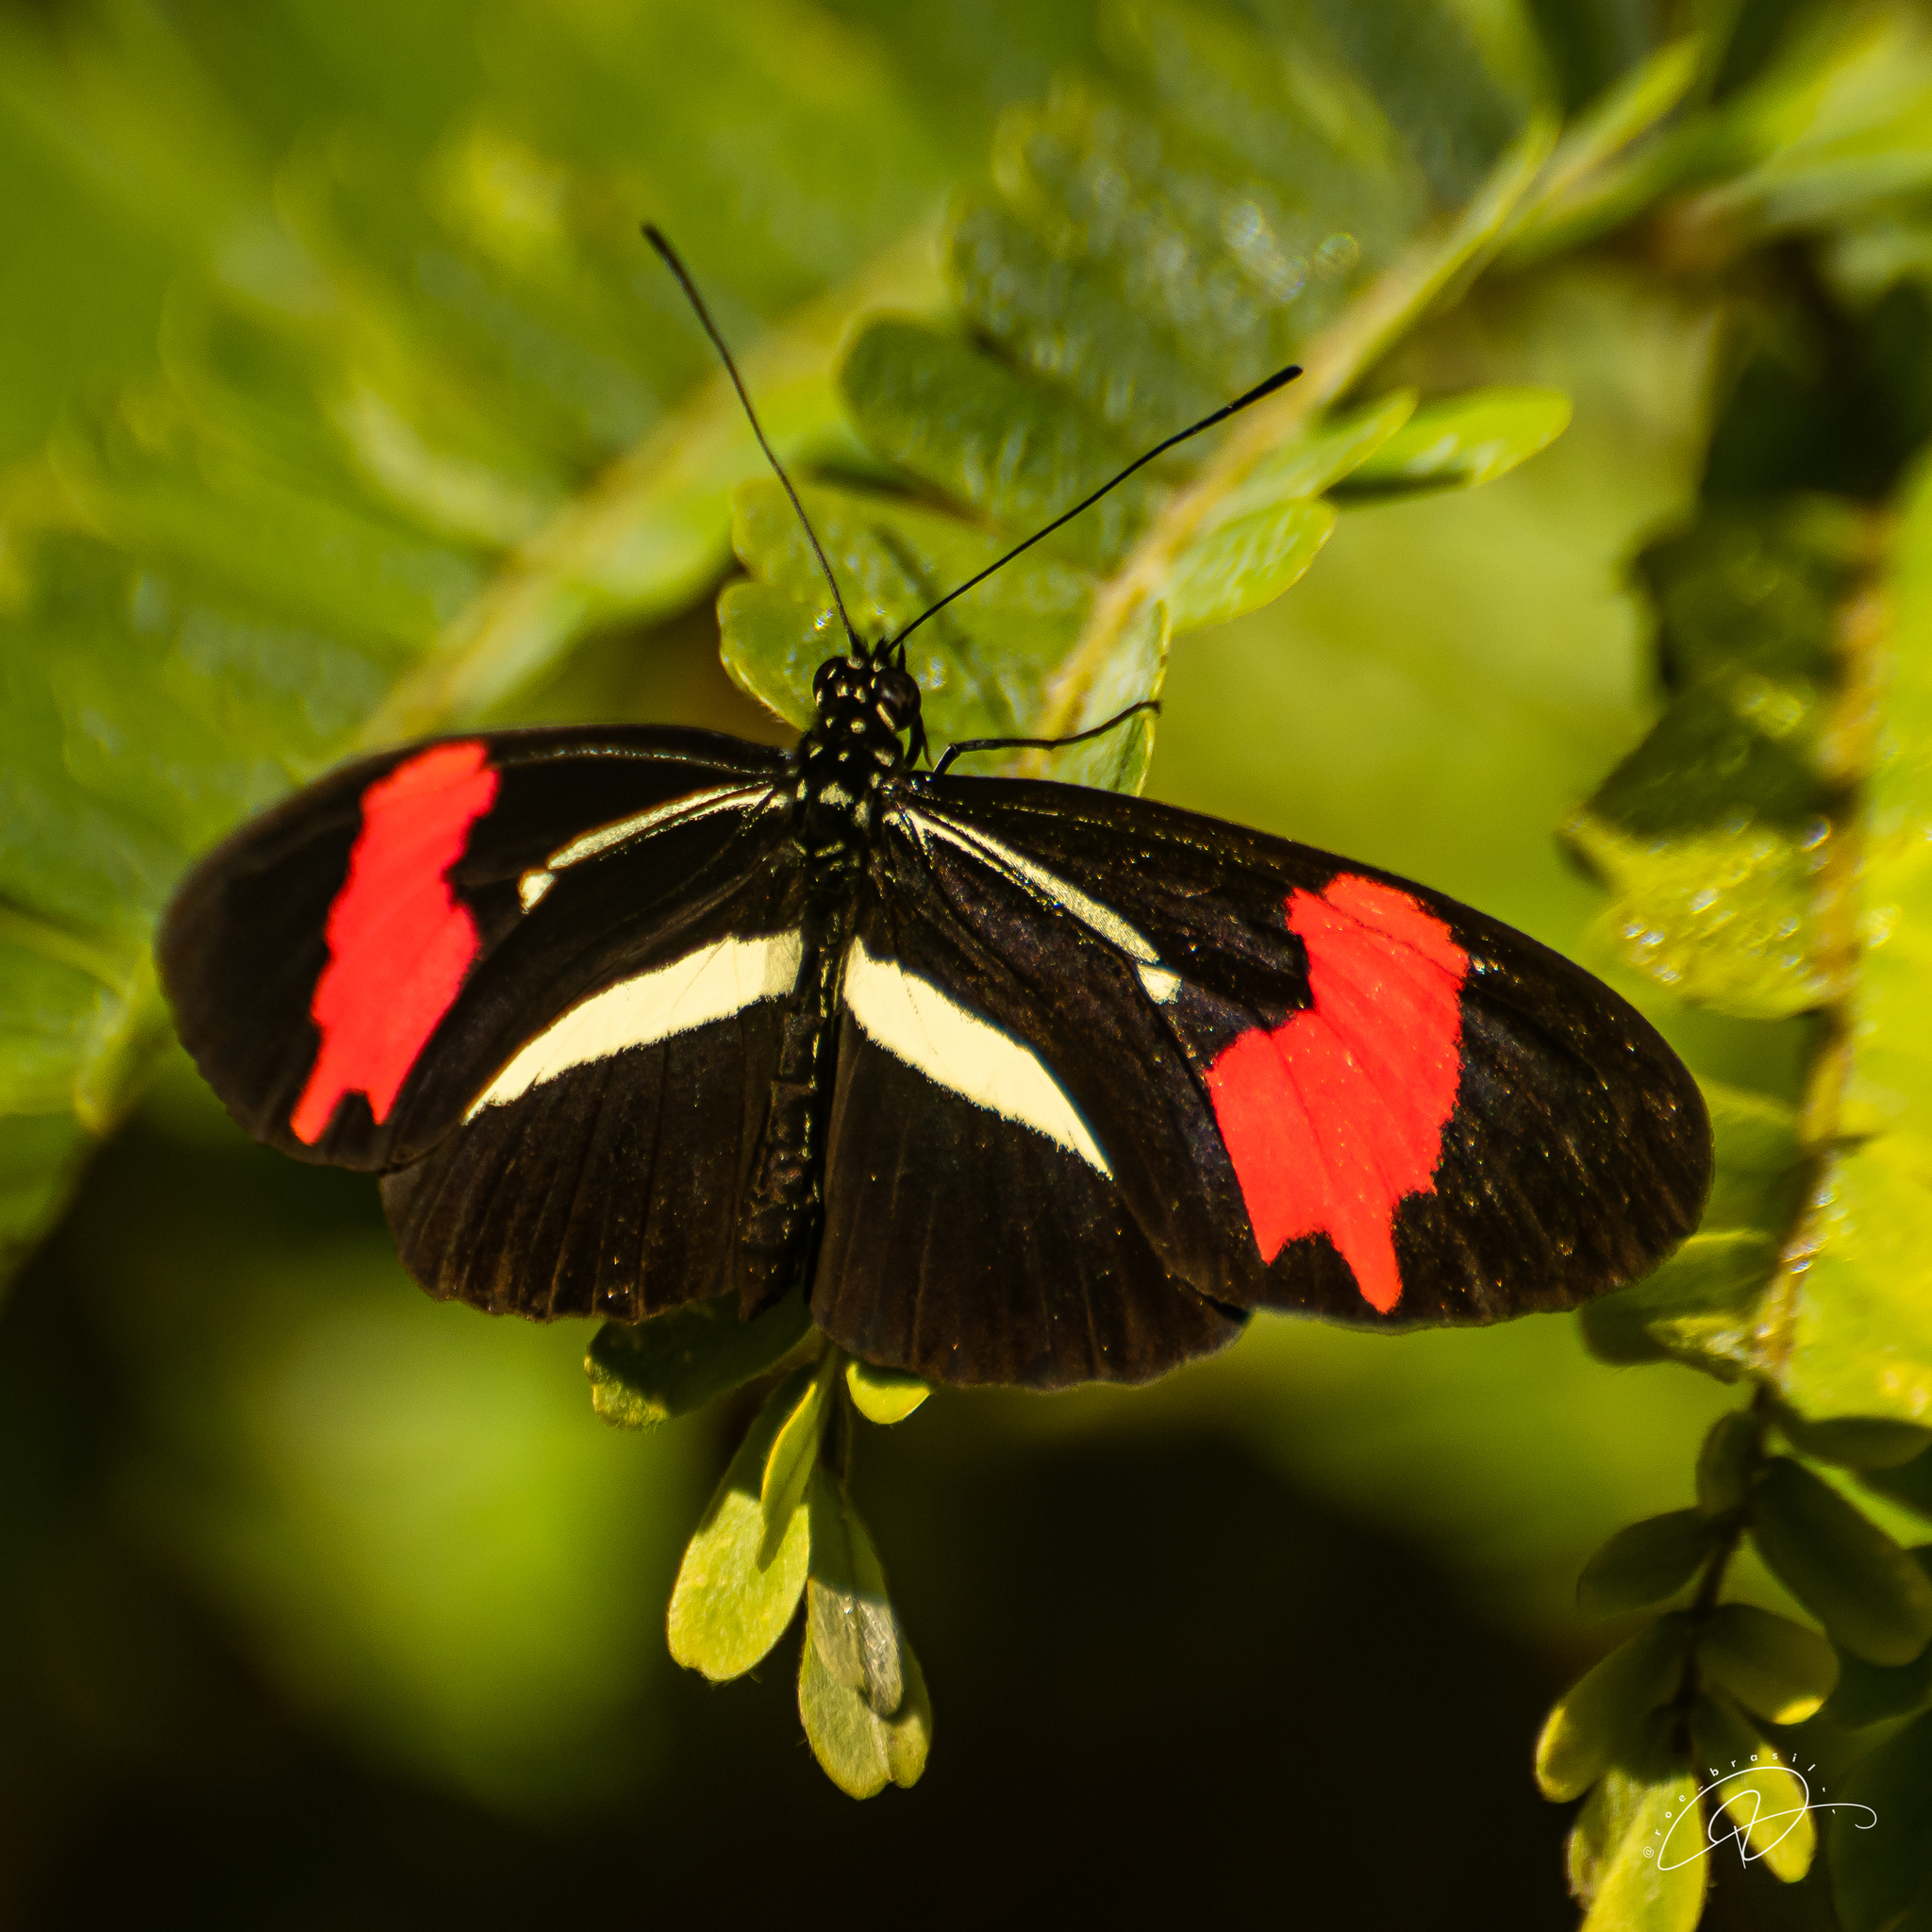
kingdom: Animalia
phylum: Arthropoda
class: Insecta
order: Lepidoptera
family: Nymphalidae
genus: Heliconius
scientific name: Heliconius erato
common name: Common patch longwing
